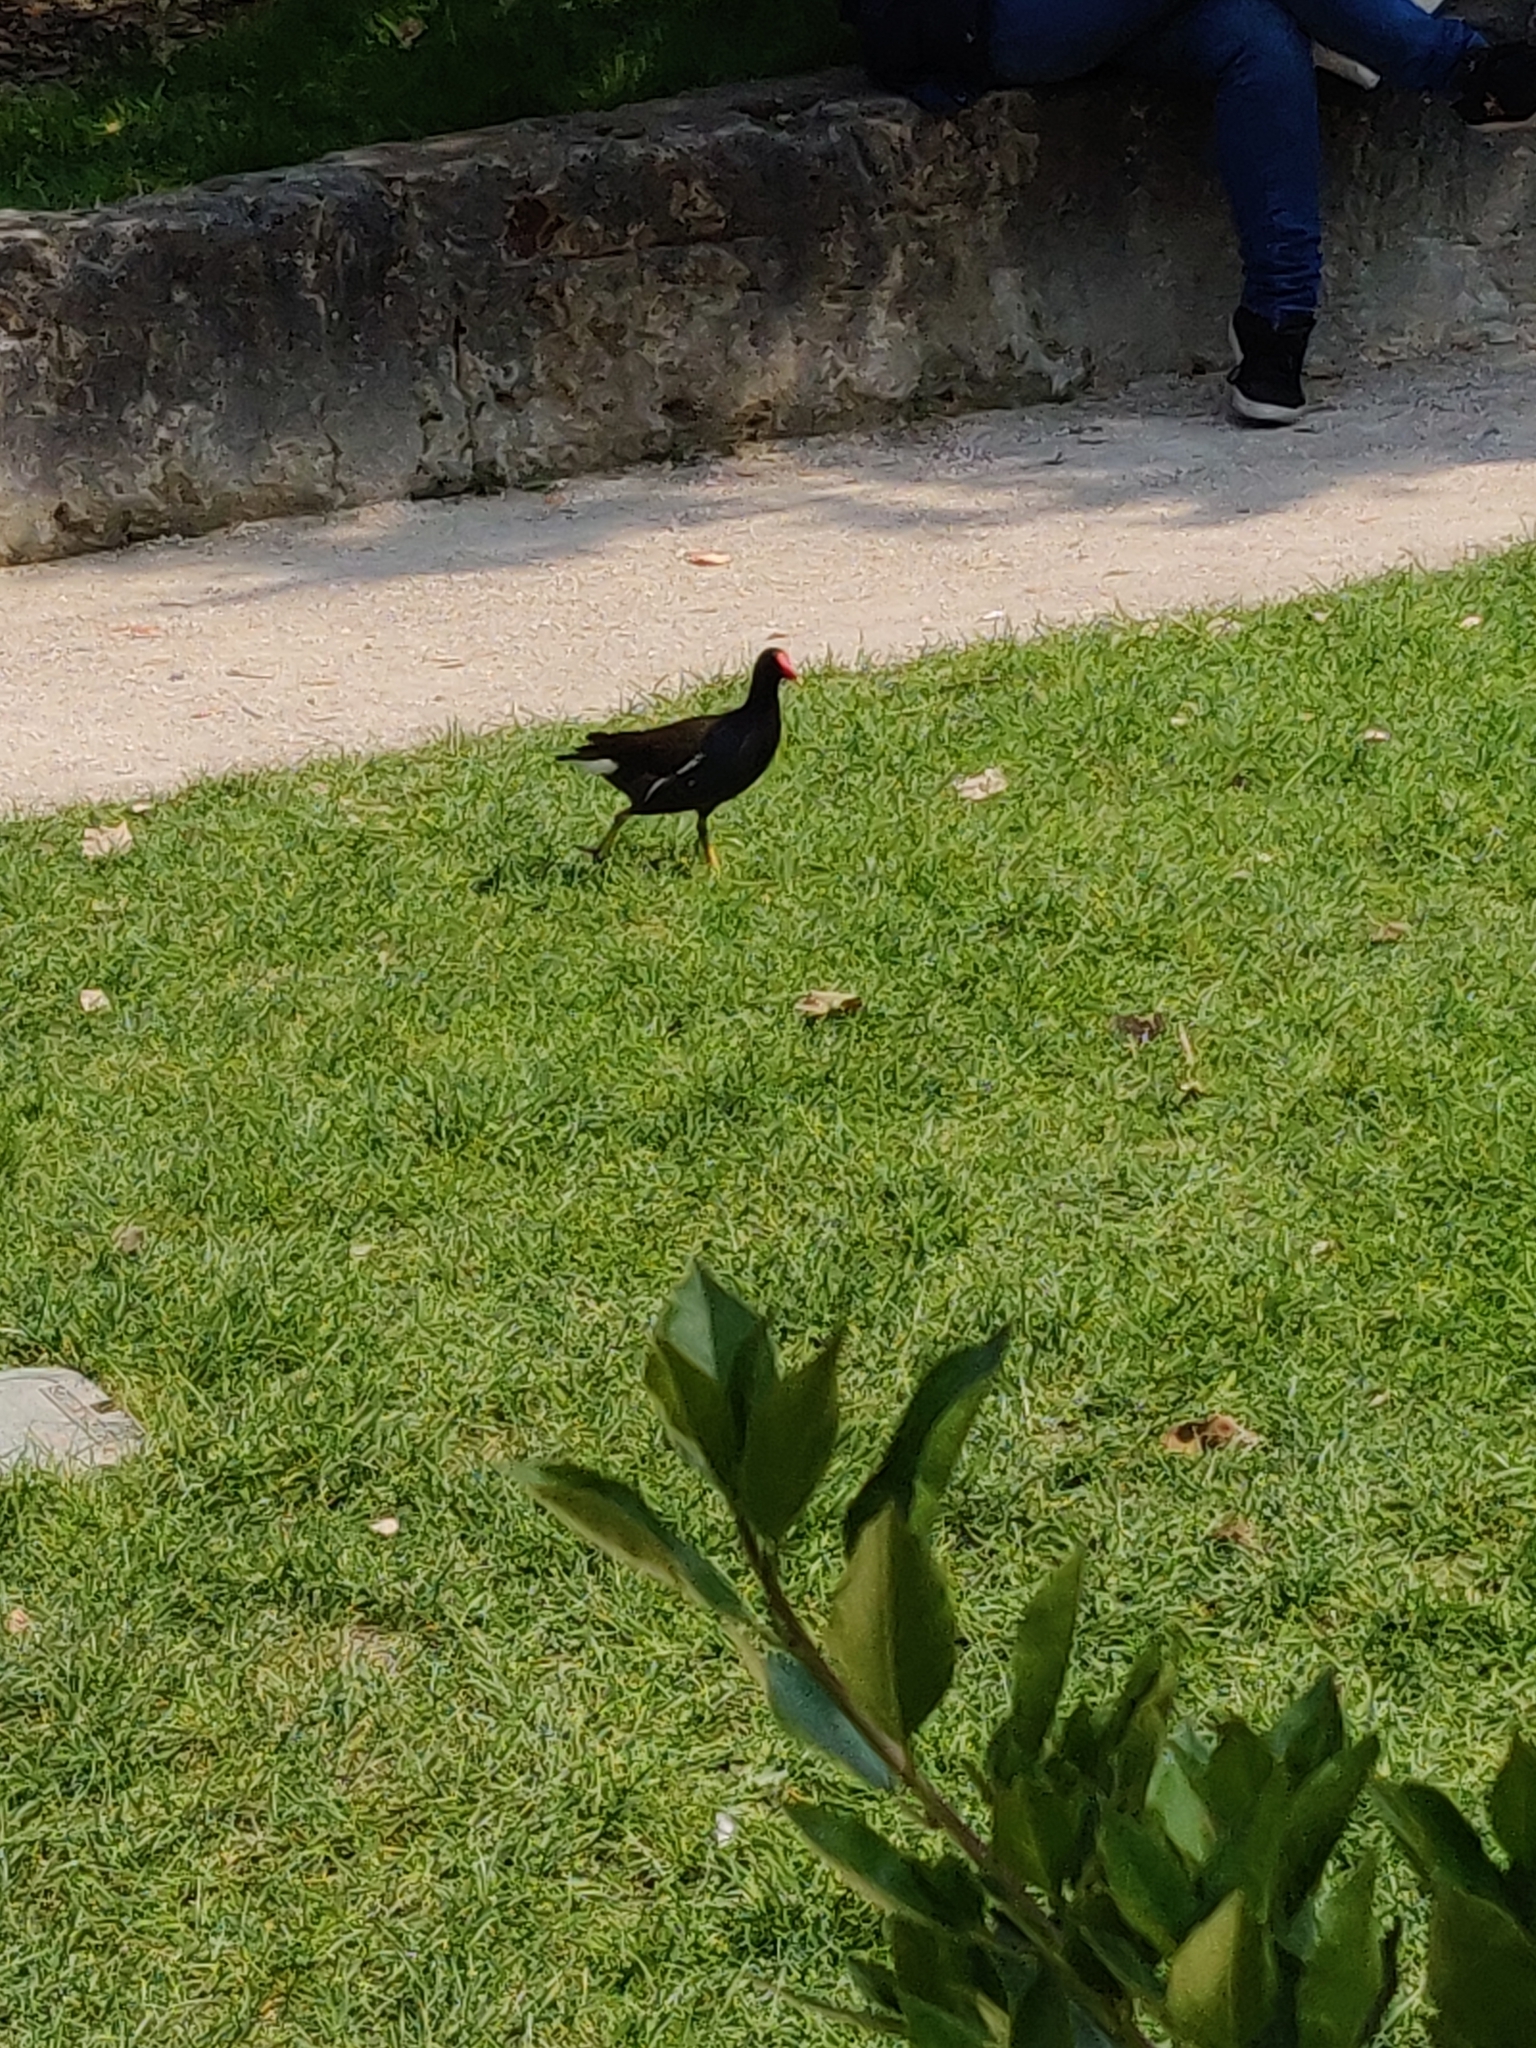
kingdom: Animalia
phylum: Chordata
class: Aves
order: Gruiformes
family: Rallidae
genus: Gallinula
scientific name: Gallinula chloropus
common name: Common moorhen
